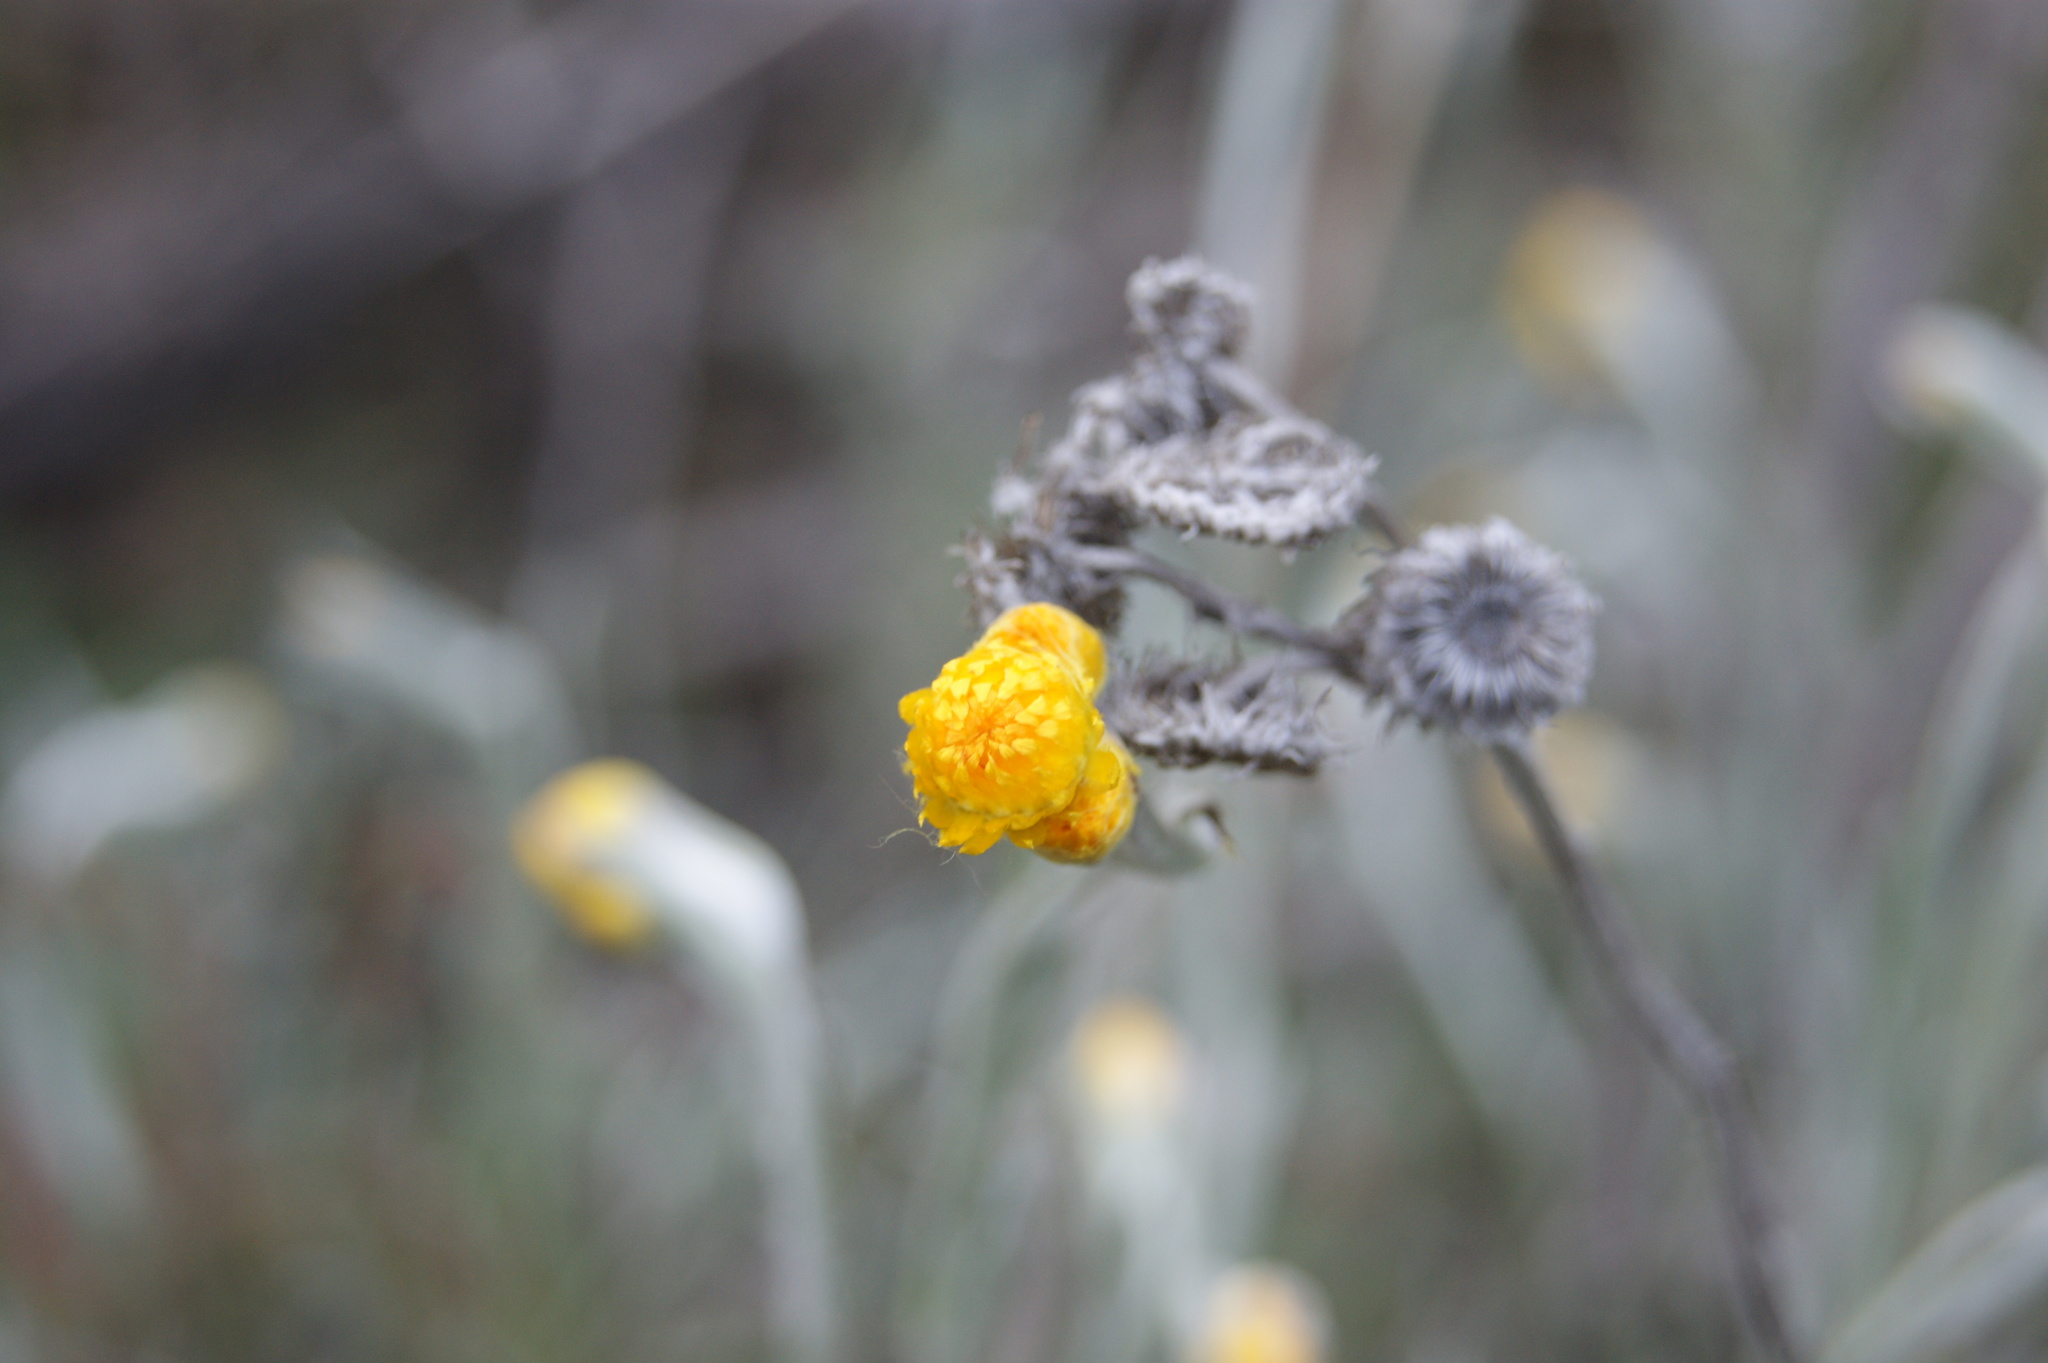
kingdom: Plantae
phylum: Tracheophyta
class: Magnoliopsida
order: Asterales
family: Asteraceae
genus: Chrysocephalum
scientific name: Chrysocephalum apiculatum
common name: Common everlasting
